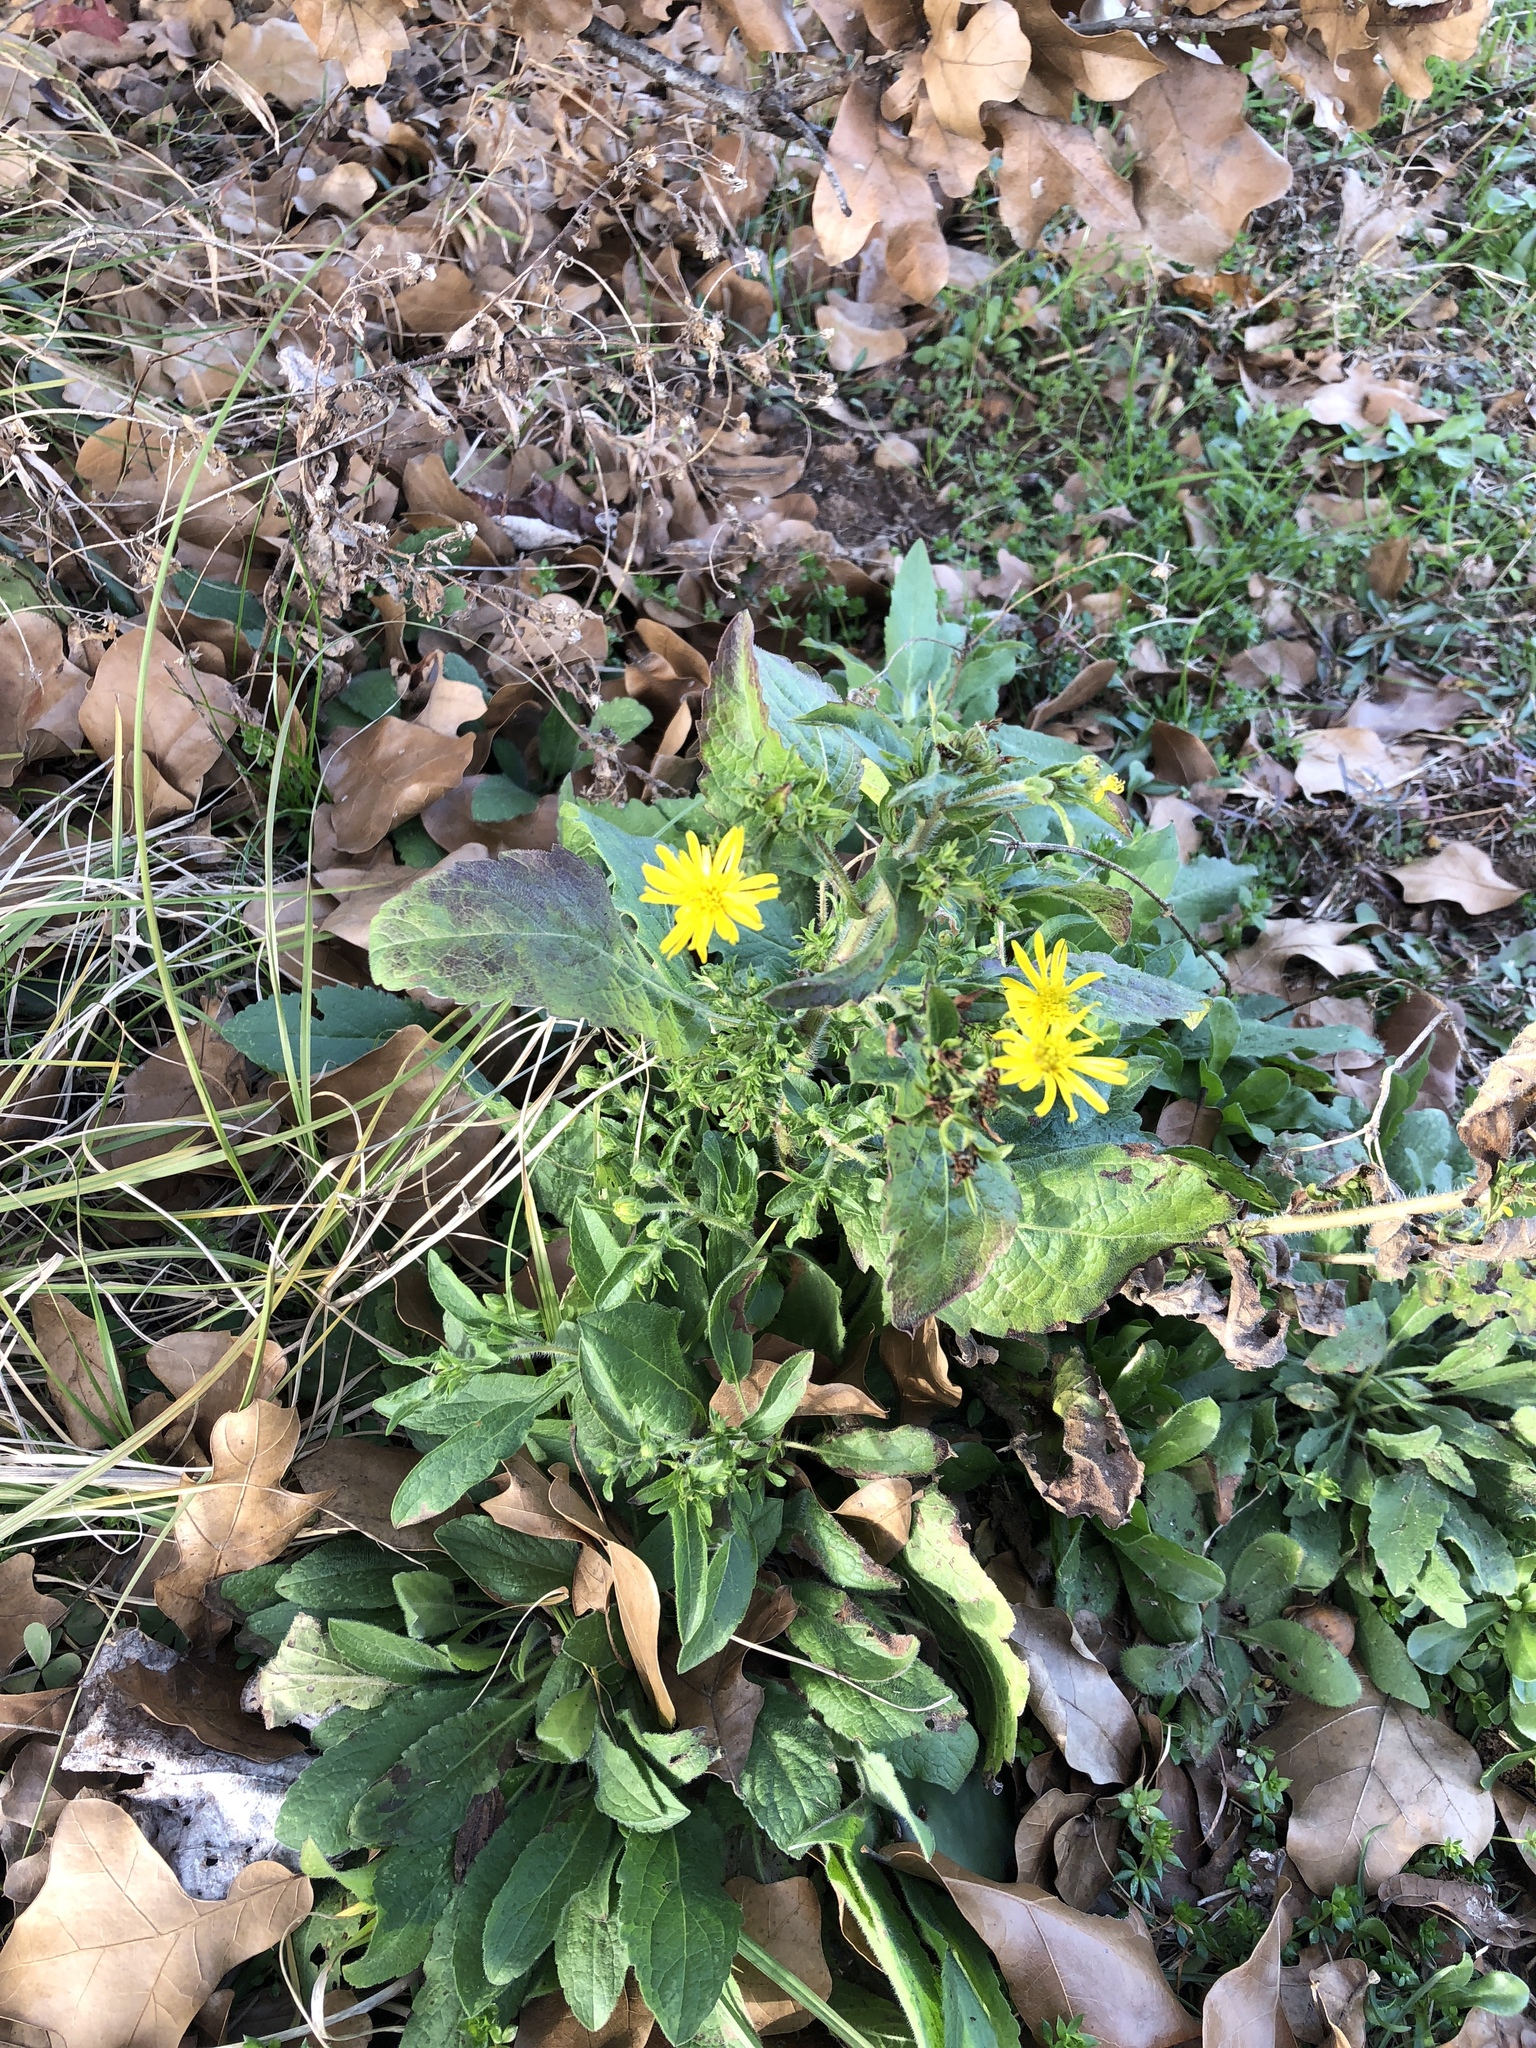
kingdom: Plantae
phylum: Tracheophyta
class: Magnoliopsida
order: Asterales
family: Asteraceae
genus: Heterotheca
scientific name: Heterotheca subaxillaris
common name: Camphorweed
